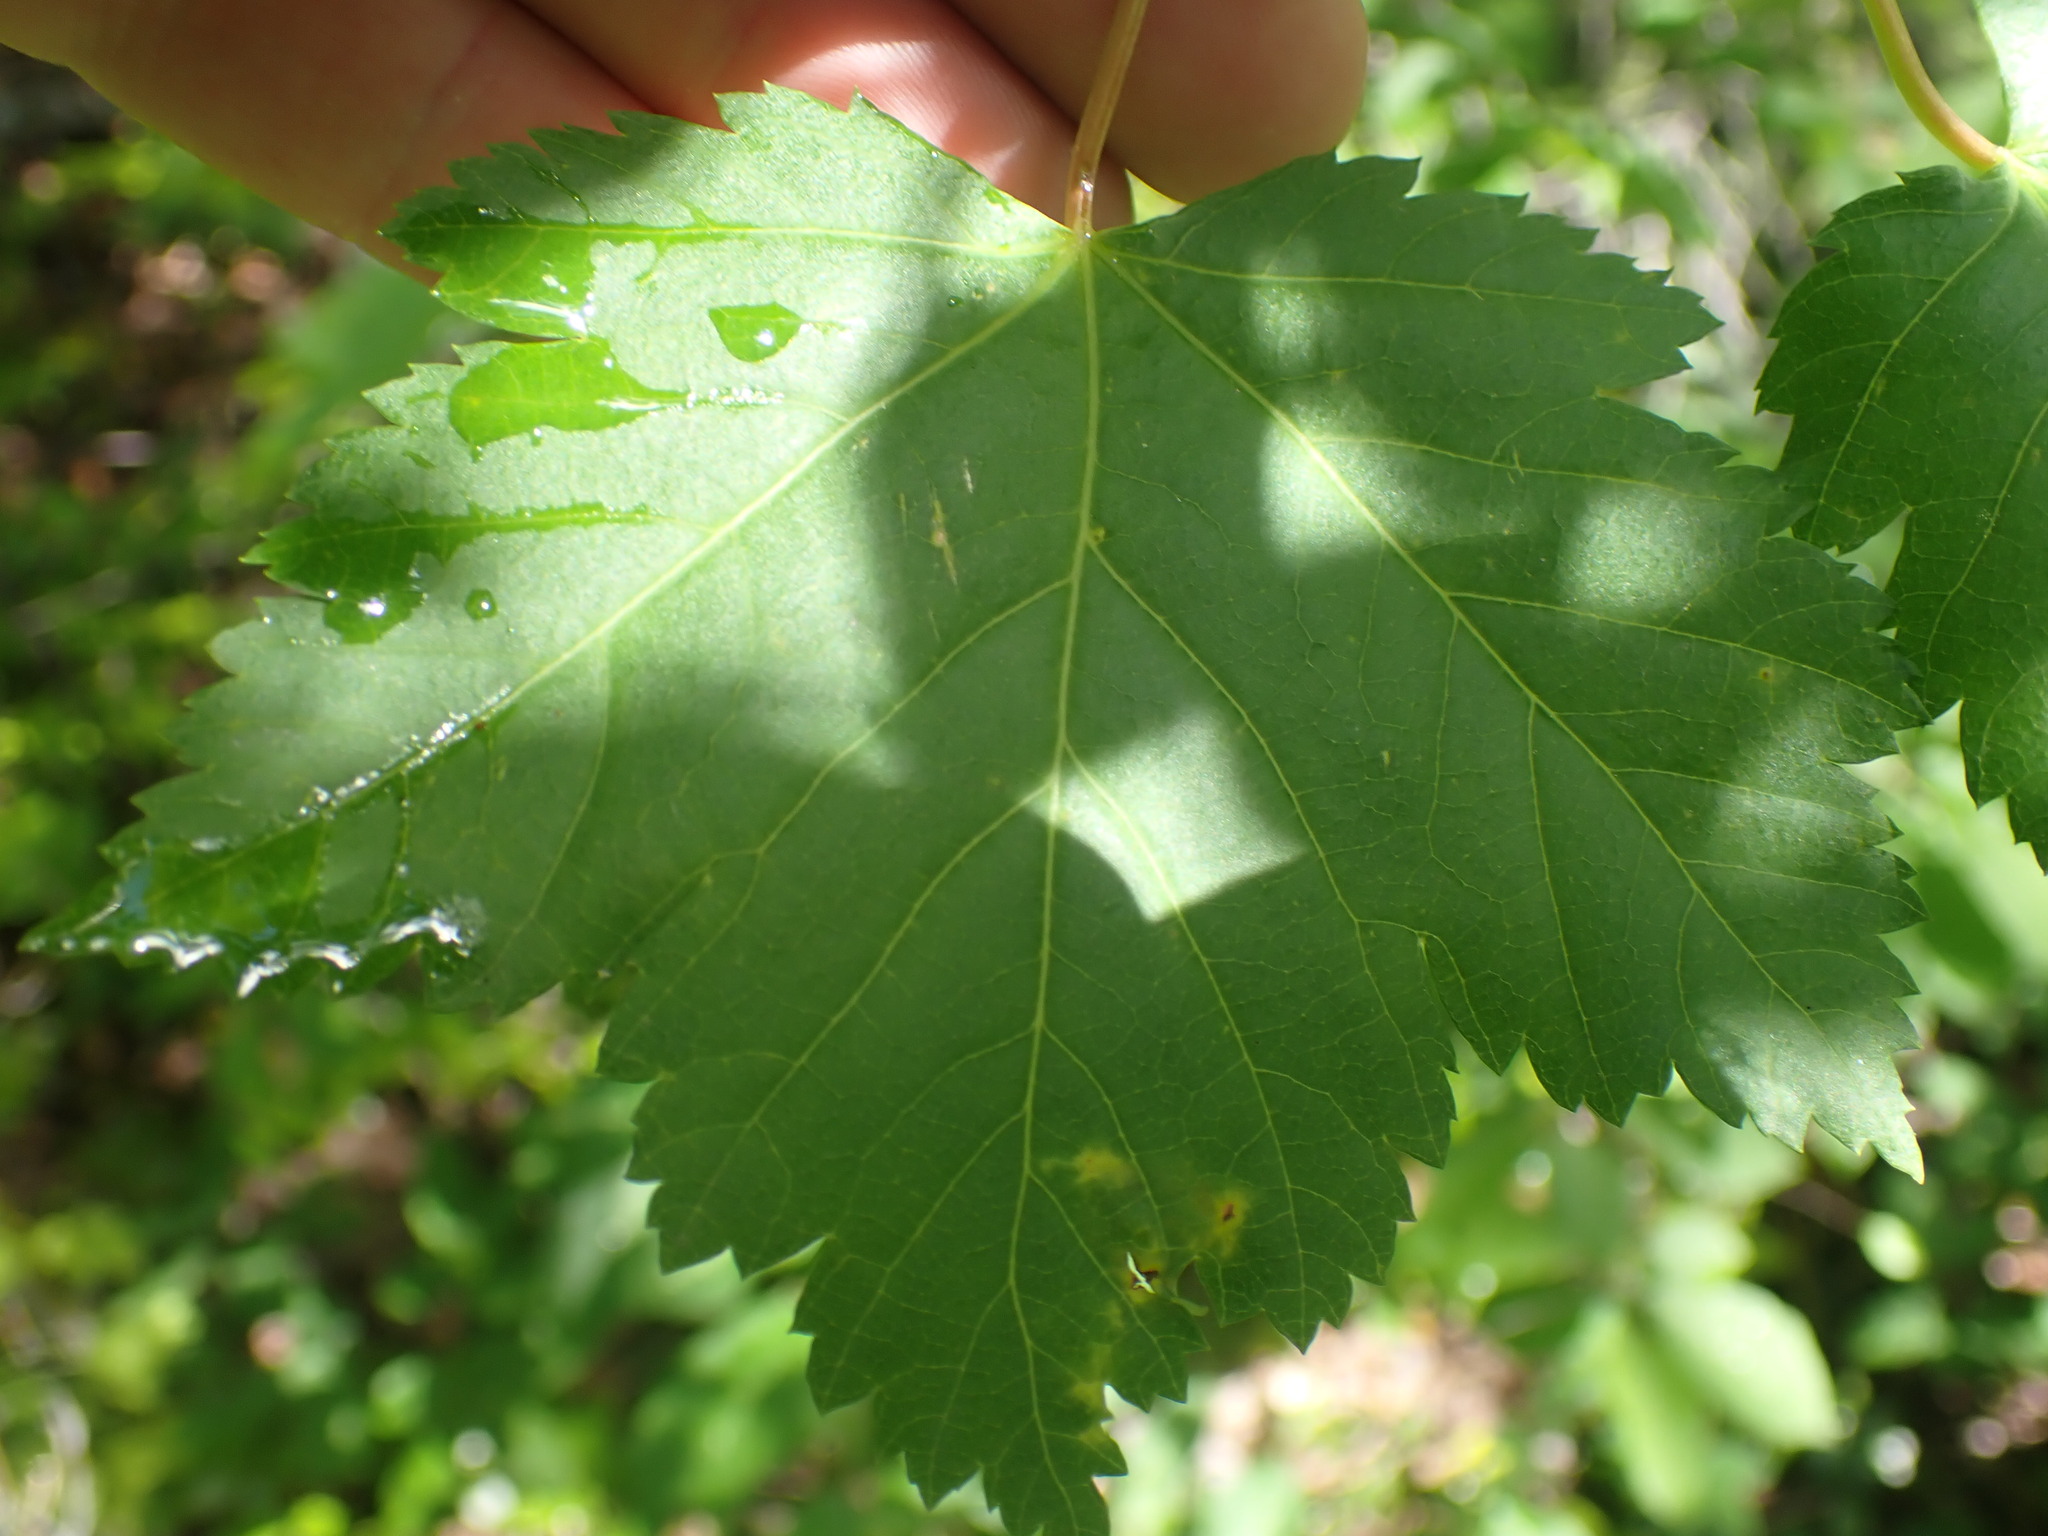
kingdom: Plantae
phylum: Tracheophyta
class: Magnoliopsida
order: Sapindales
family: Sapindaceae
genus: Acer
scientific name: Acer glabrum
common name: Rocky mountain maple
